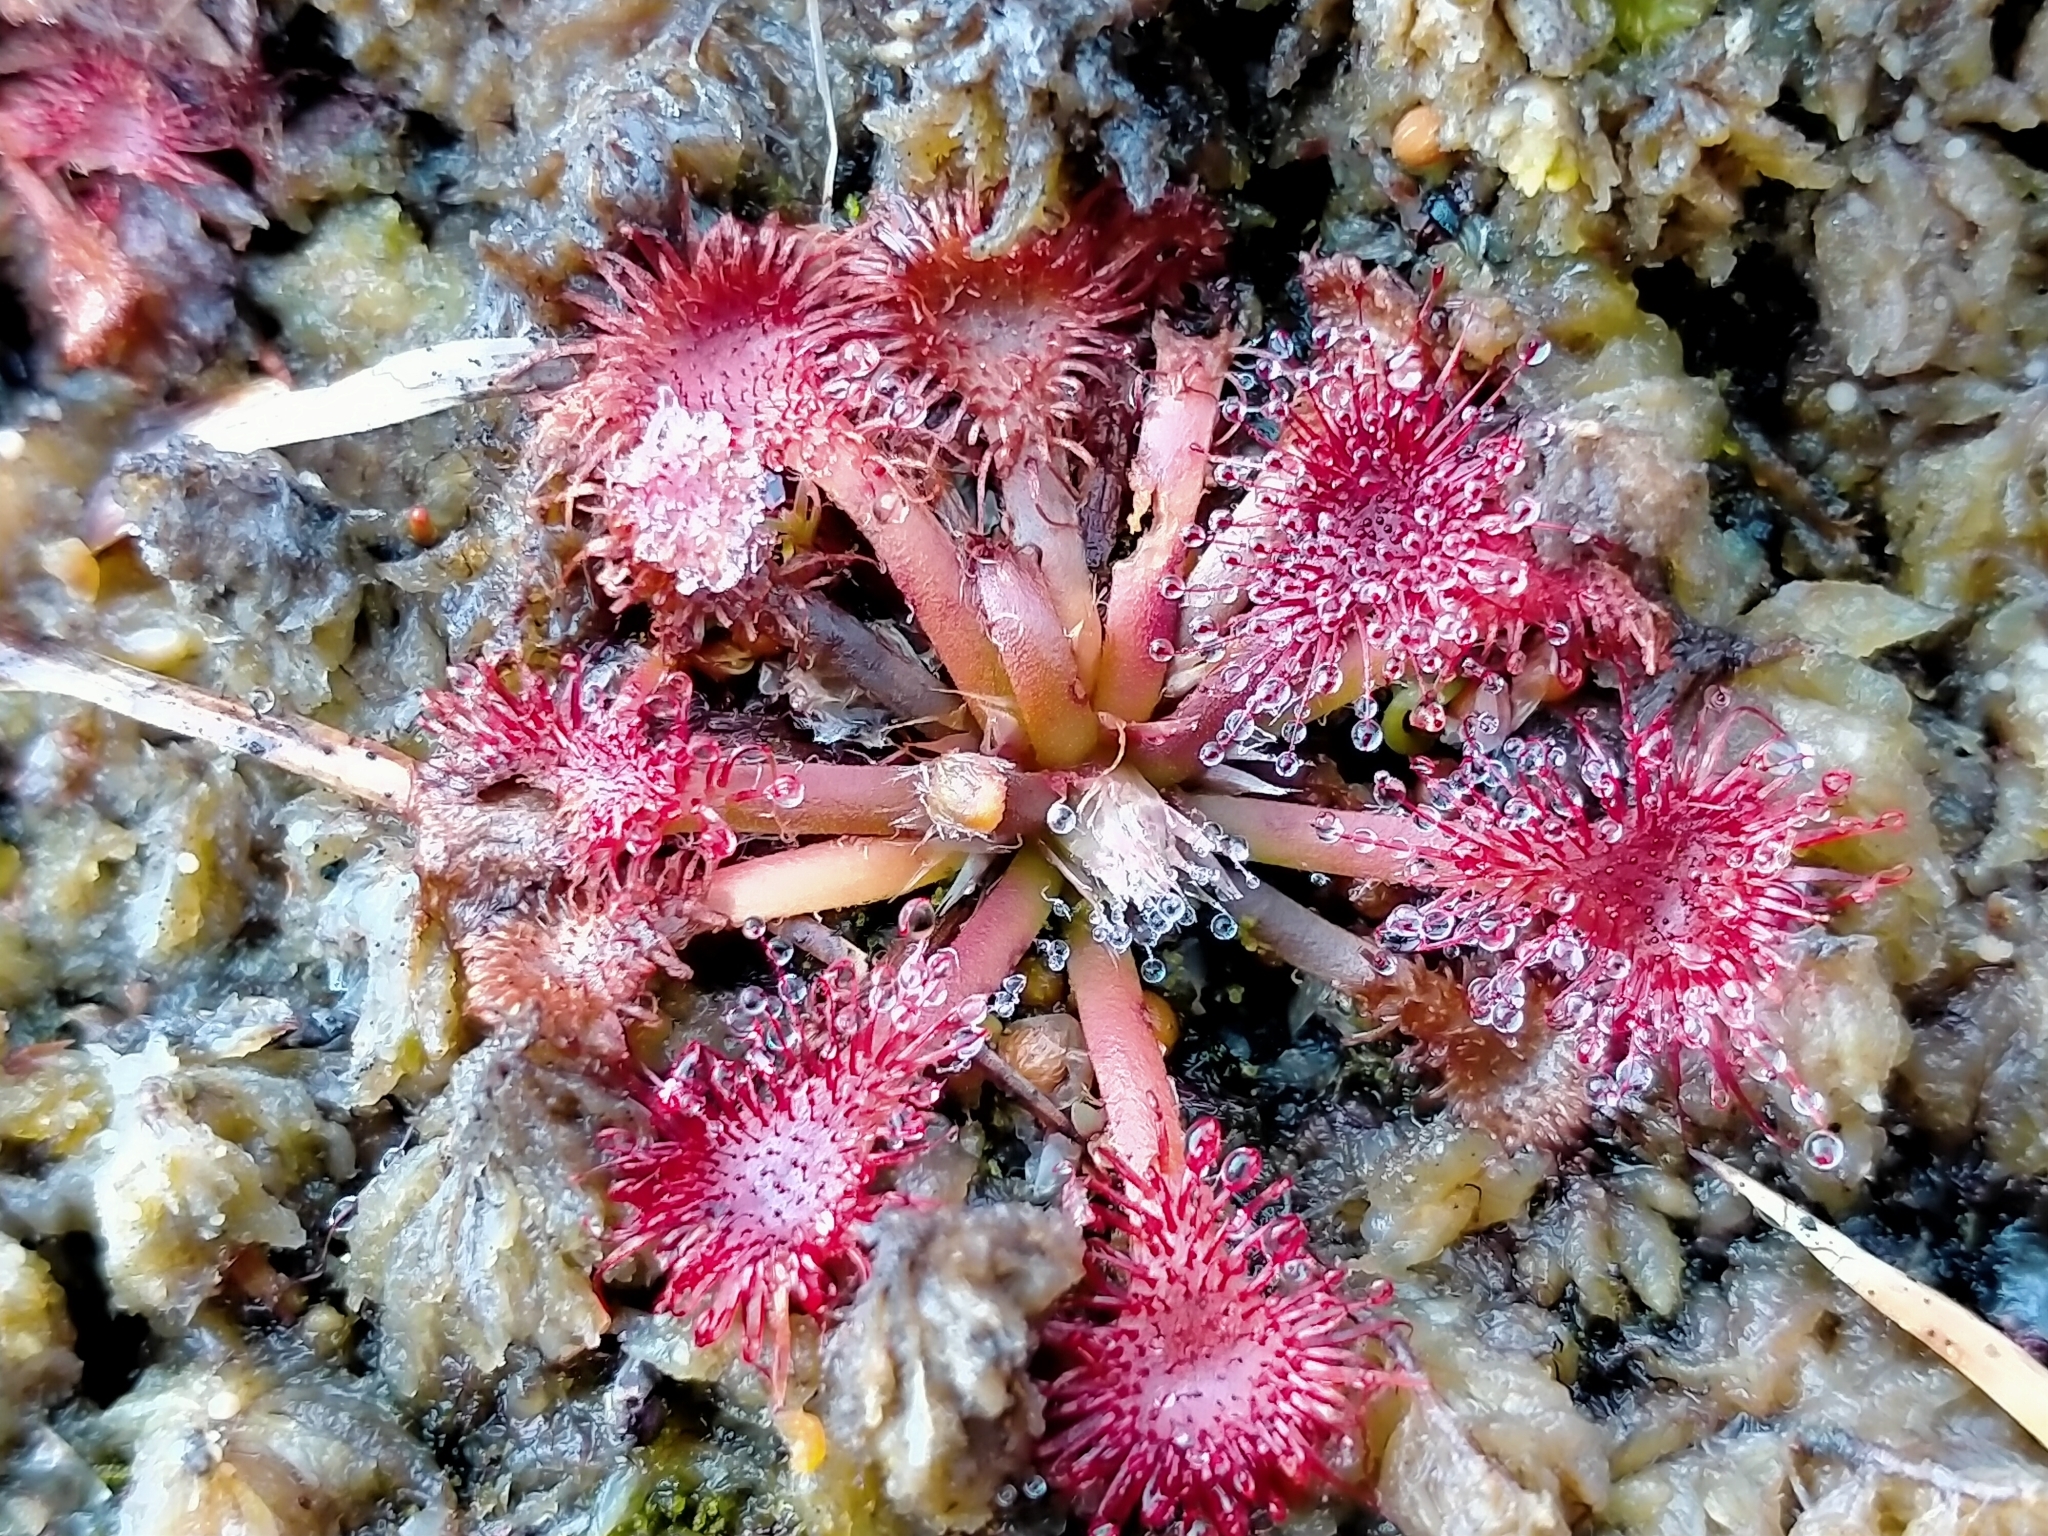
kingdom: Plantae
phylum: Tracheophyta
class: Magnoliopsida
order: Caryophyllales
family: Droseraceae
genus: Drosera
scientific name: Drosera spatulata
